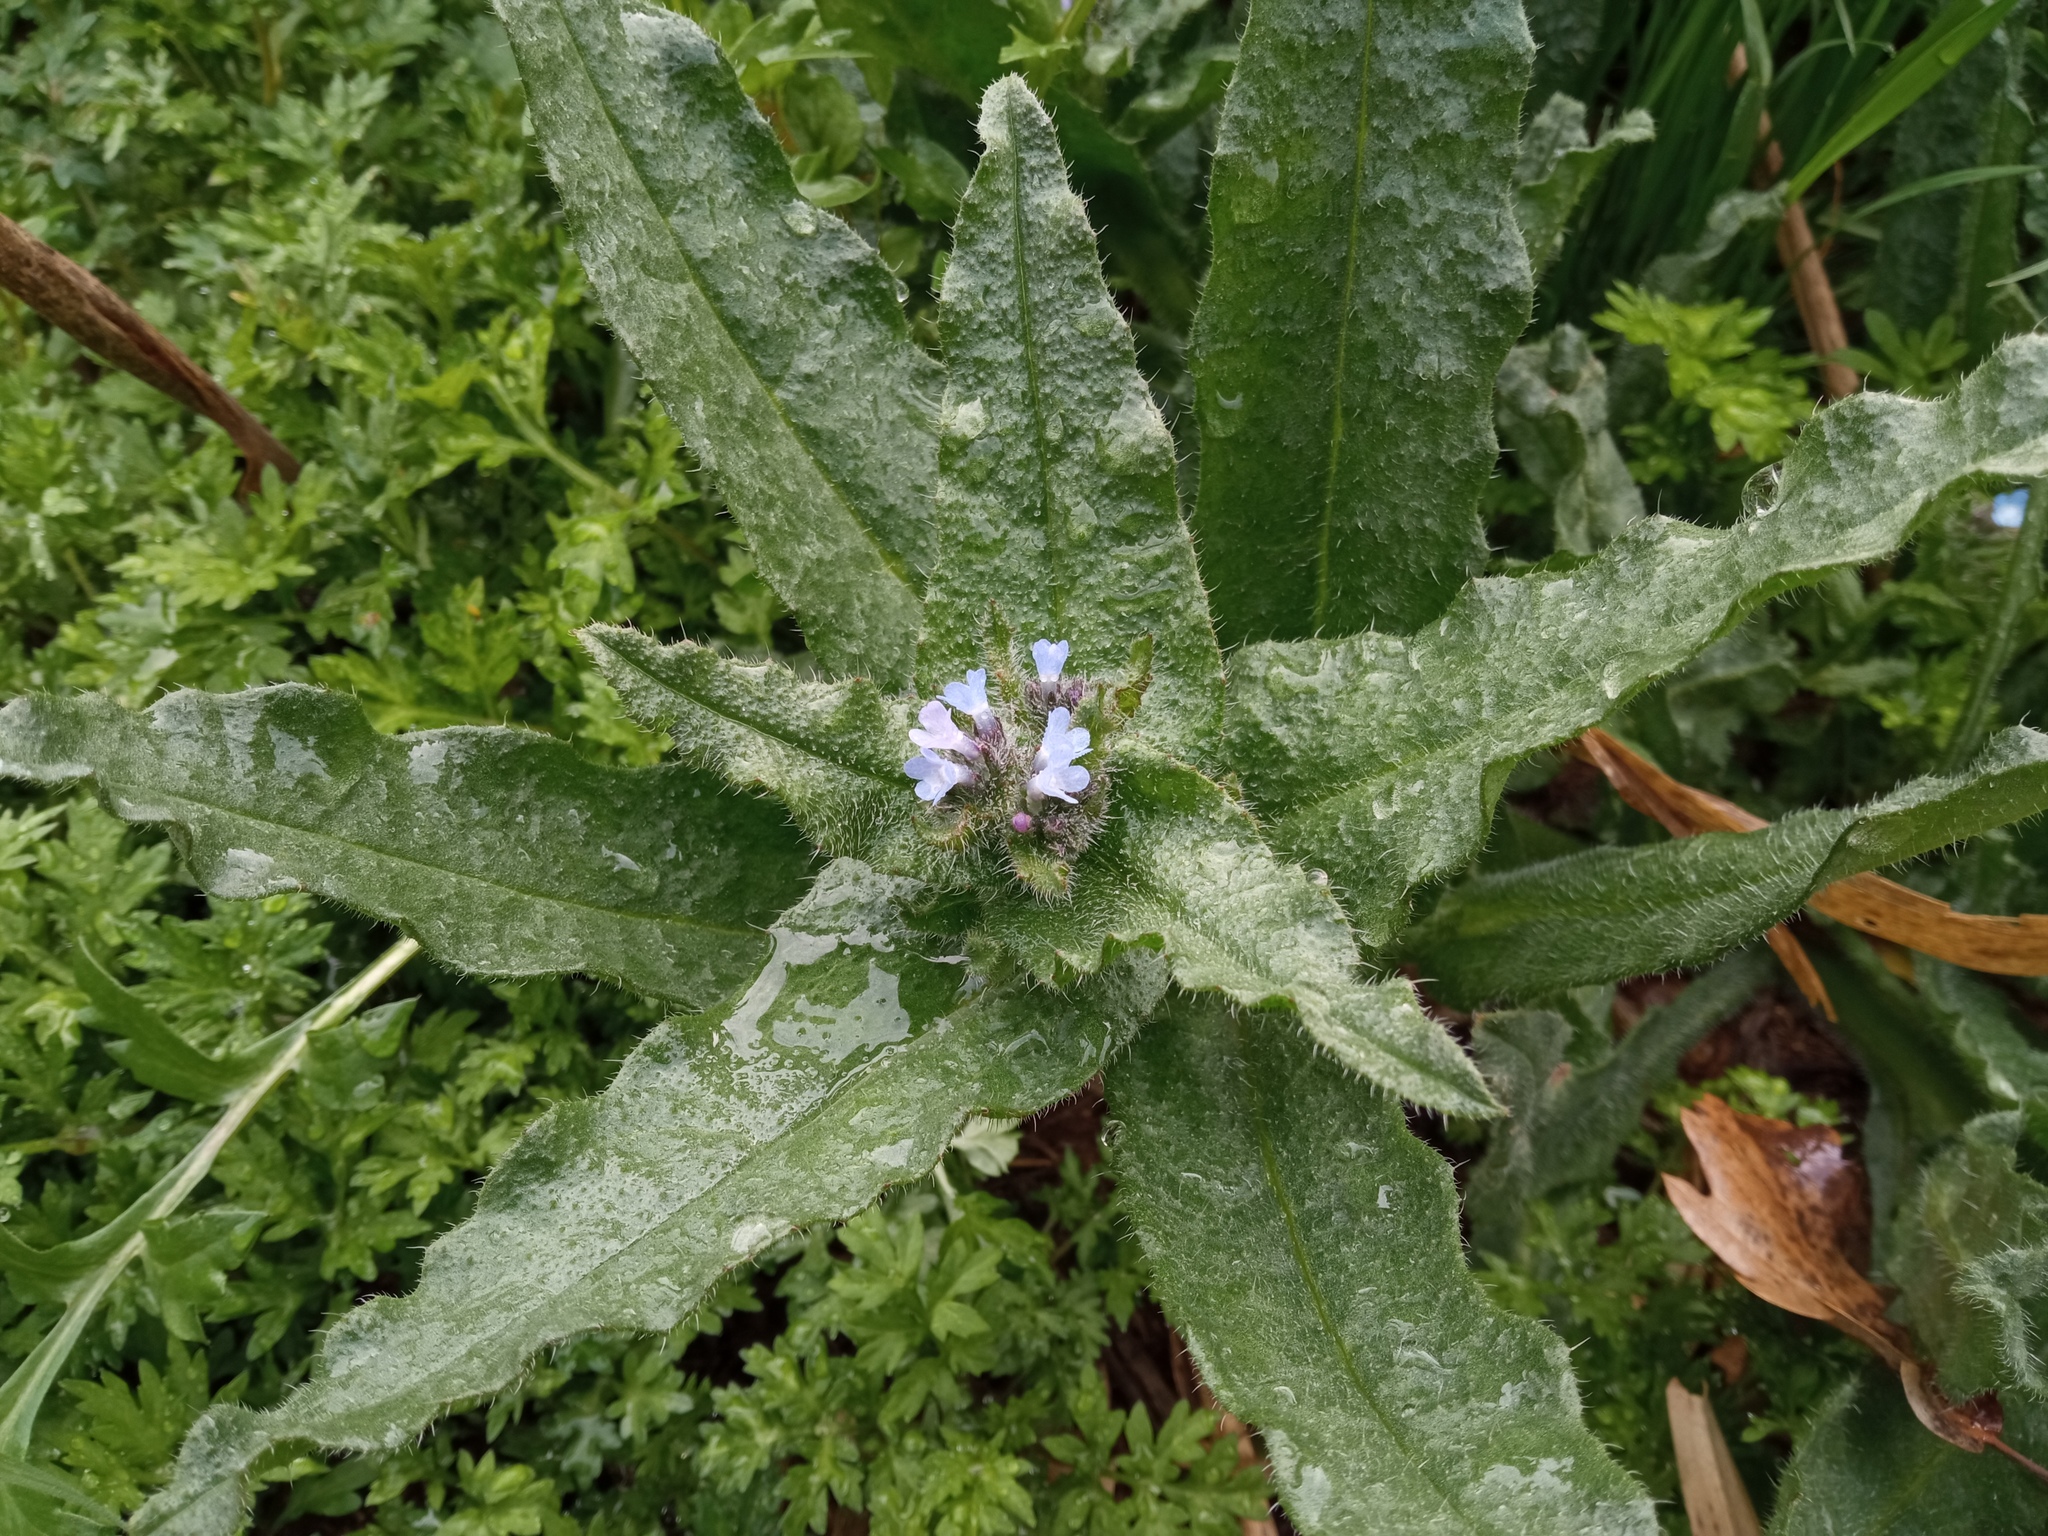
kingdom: Plantae
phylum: Tracheophyta
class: Magnoliopsida
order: Boraginales
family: Boraginaceae
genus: Lycopsis
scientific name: Lycopsis arvensis
